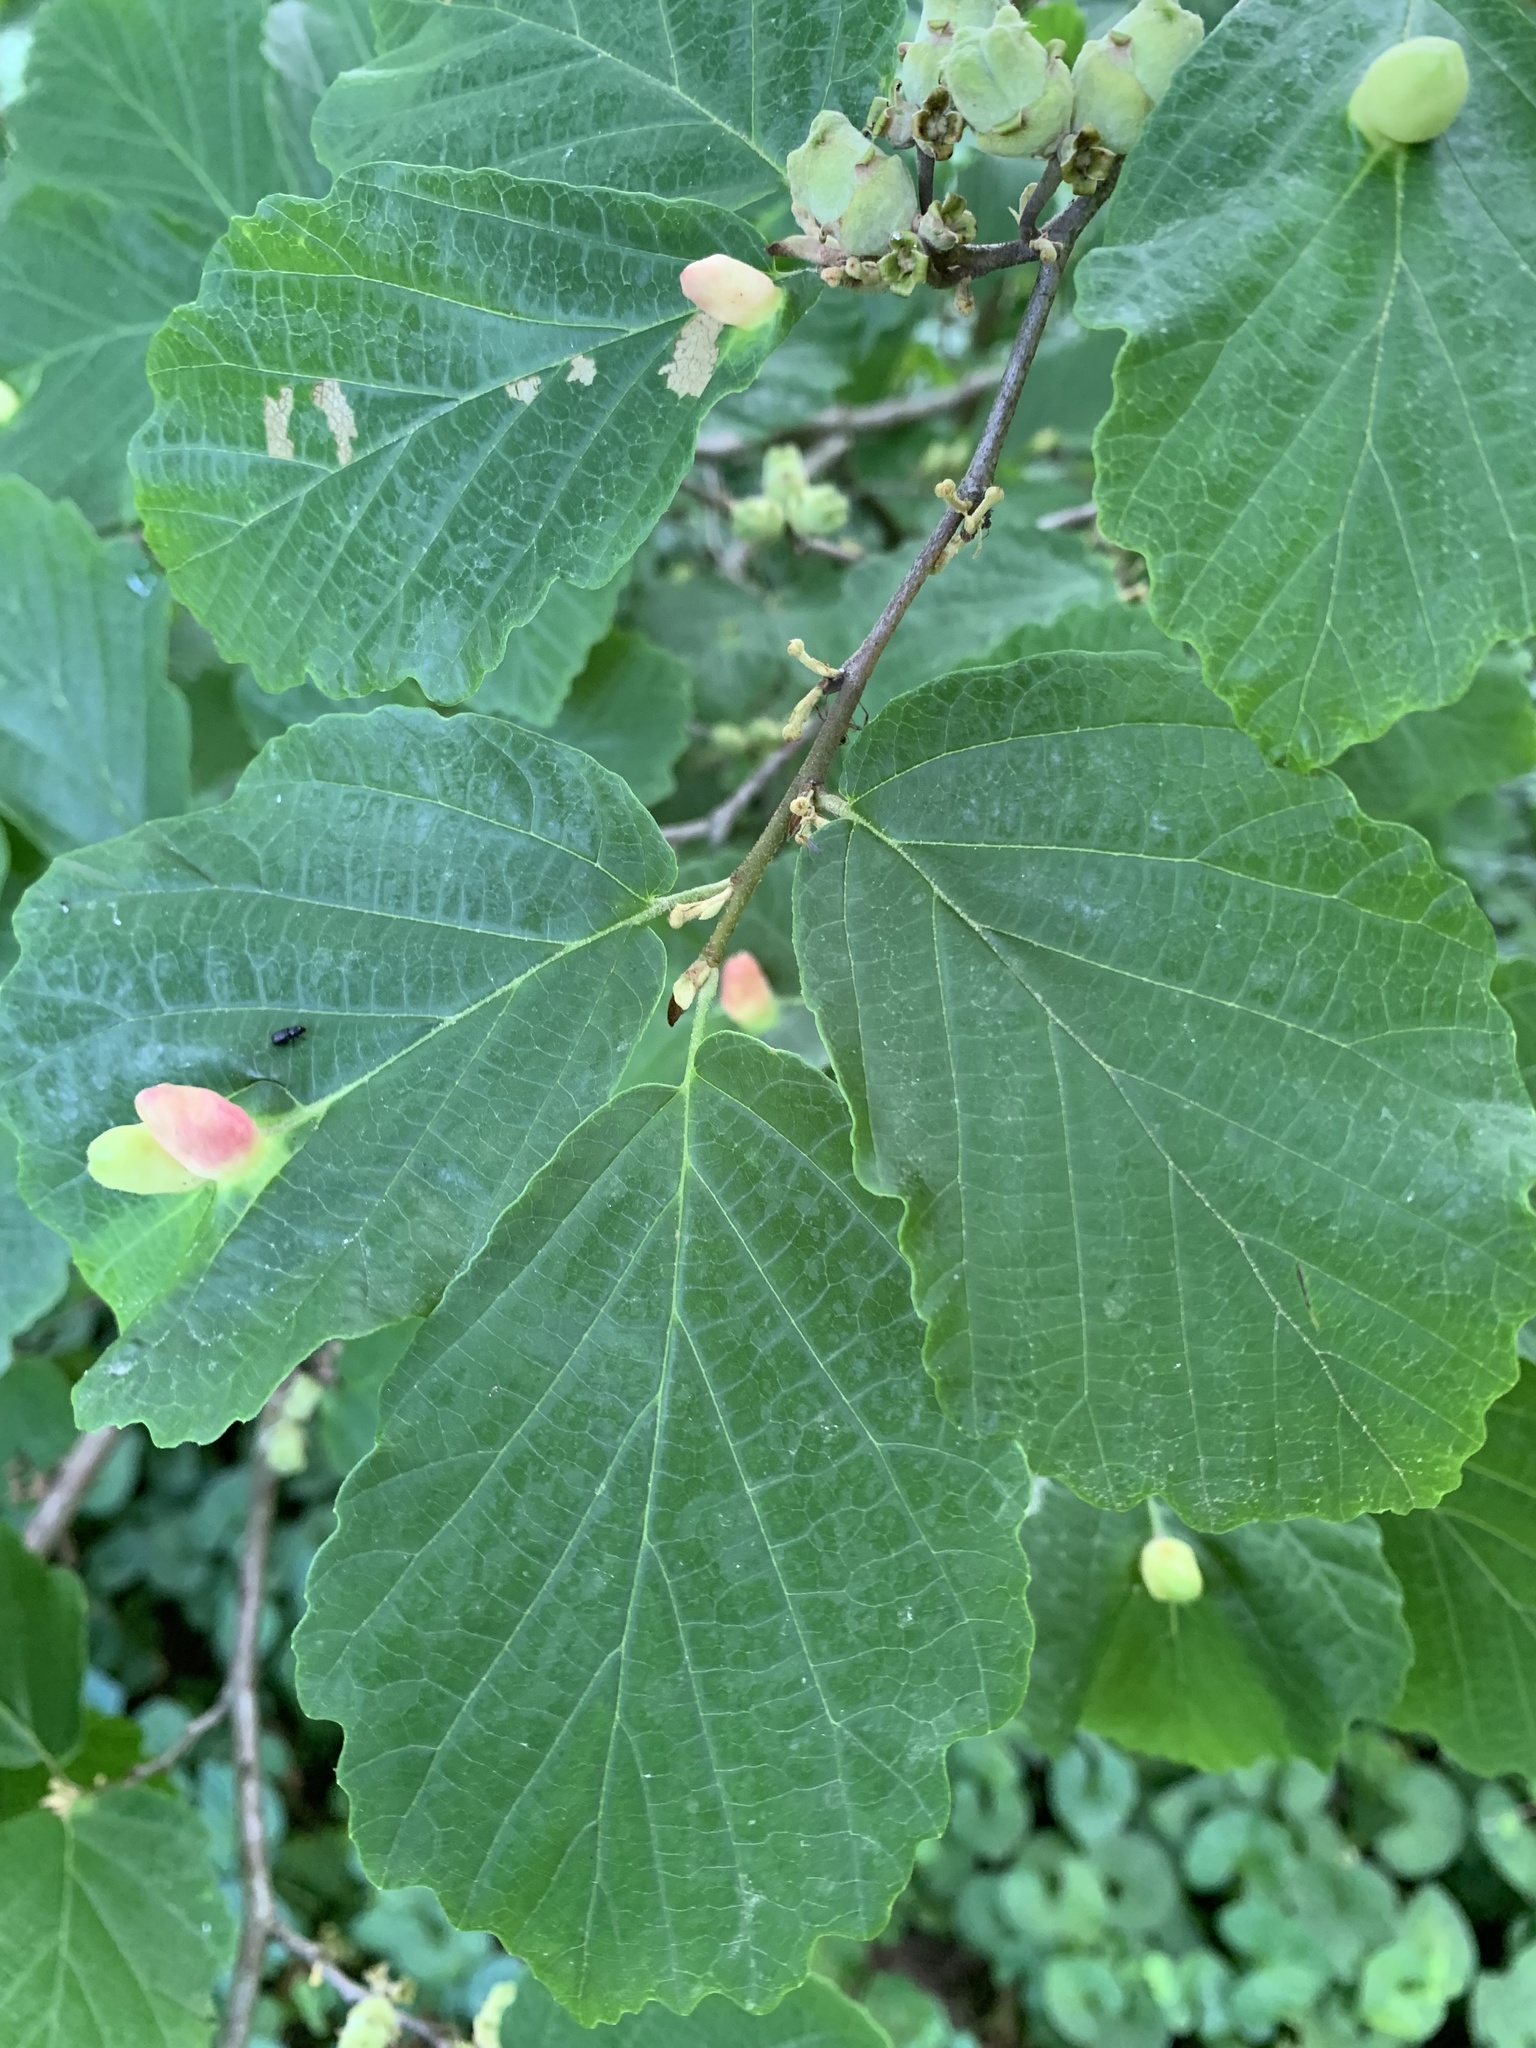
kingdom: Animalia
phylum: Arthropoda
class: Insecta
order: Hemiptera
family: Aphididae
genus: Hormaphis
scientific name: Hormaphis hamamelidis
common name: Witch-hazel cone gall aphid
